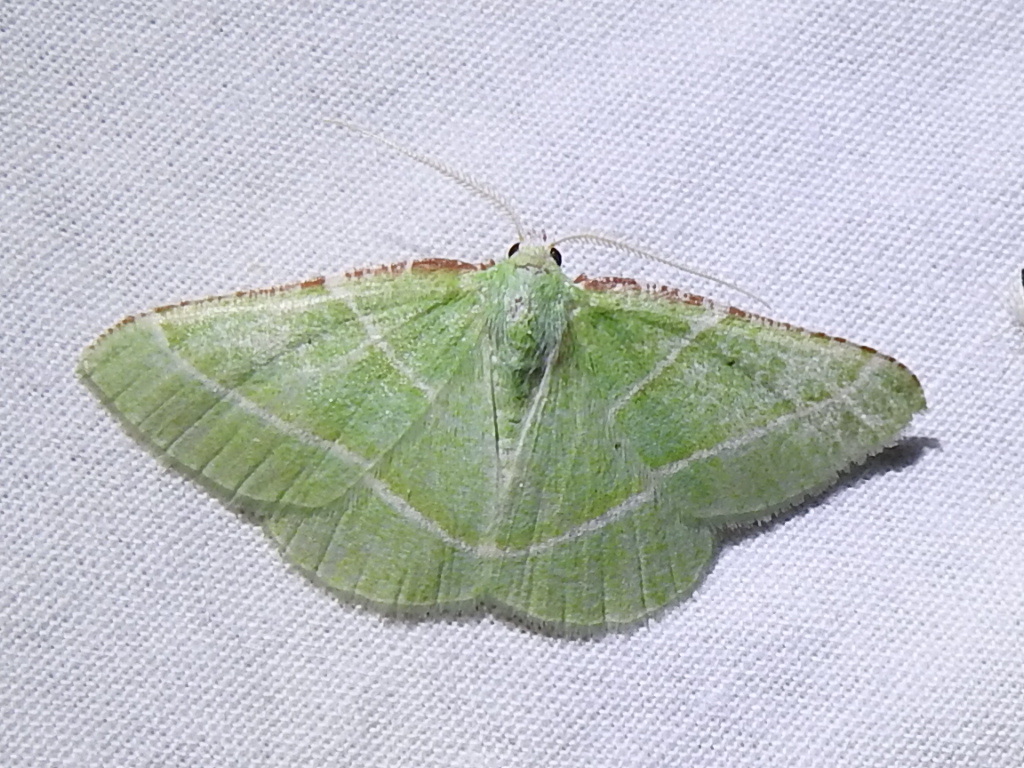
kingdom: Animalia
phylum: Arthropoda
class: Insecta
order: Lepidoptera
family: Geometridae
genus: Dichorda
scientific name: Dichorda rectaria
